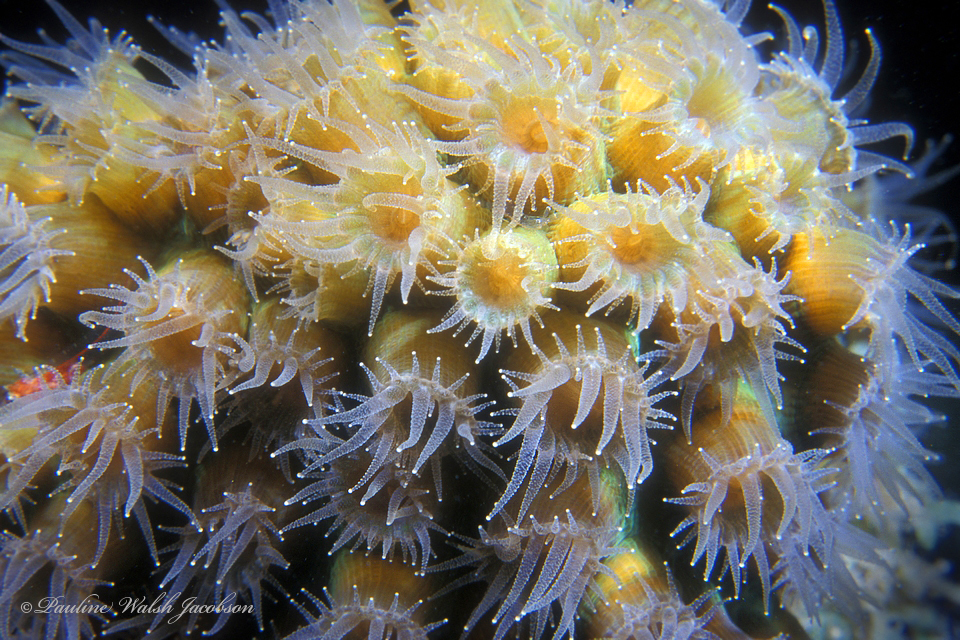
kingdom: Animalia
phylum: Cnidaria
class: Anthozoa
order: Scleractinia
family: Montastraeidae
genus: Montastraea
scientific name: Montastraea cavernosa
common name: Great star coral
